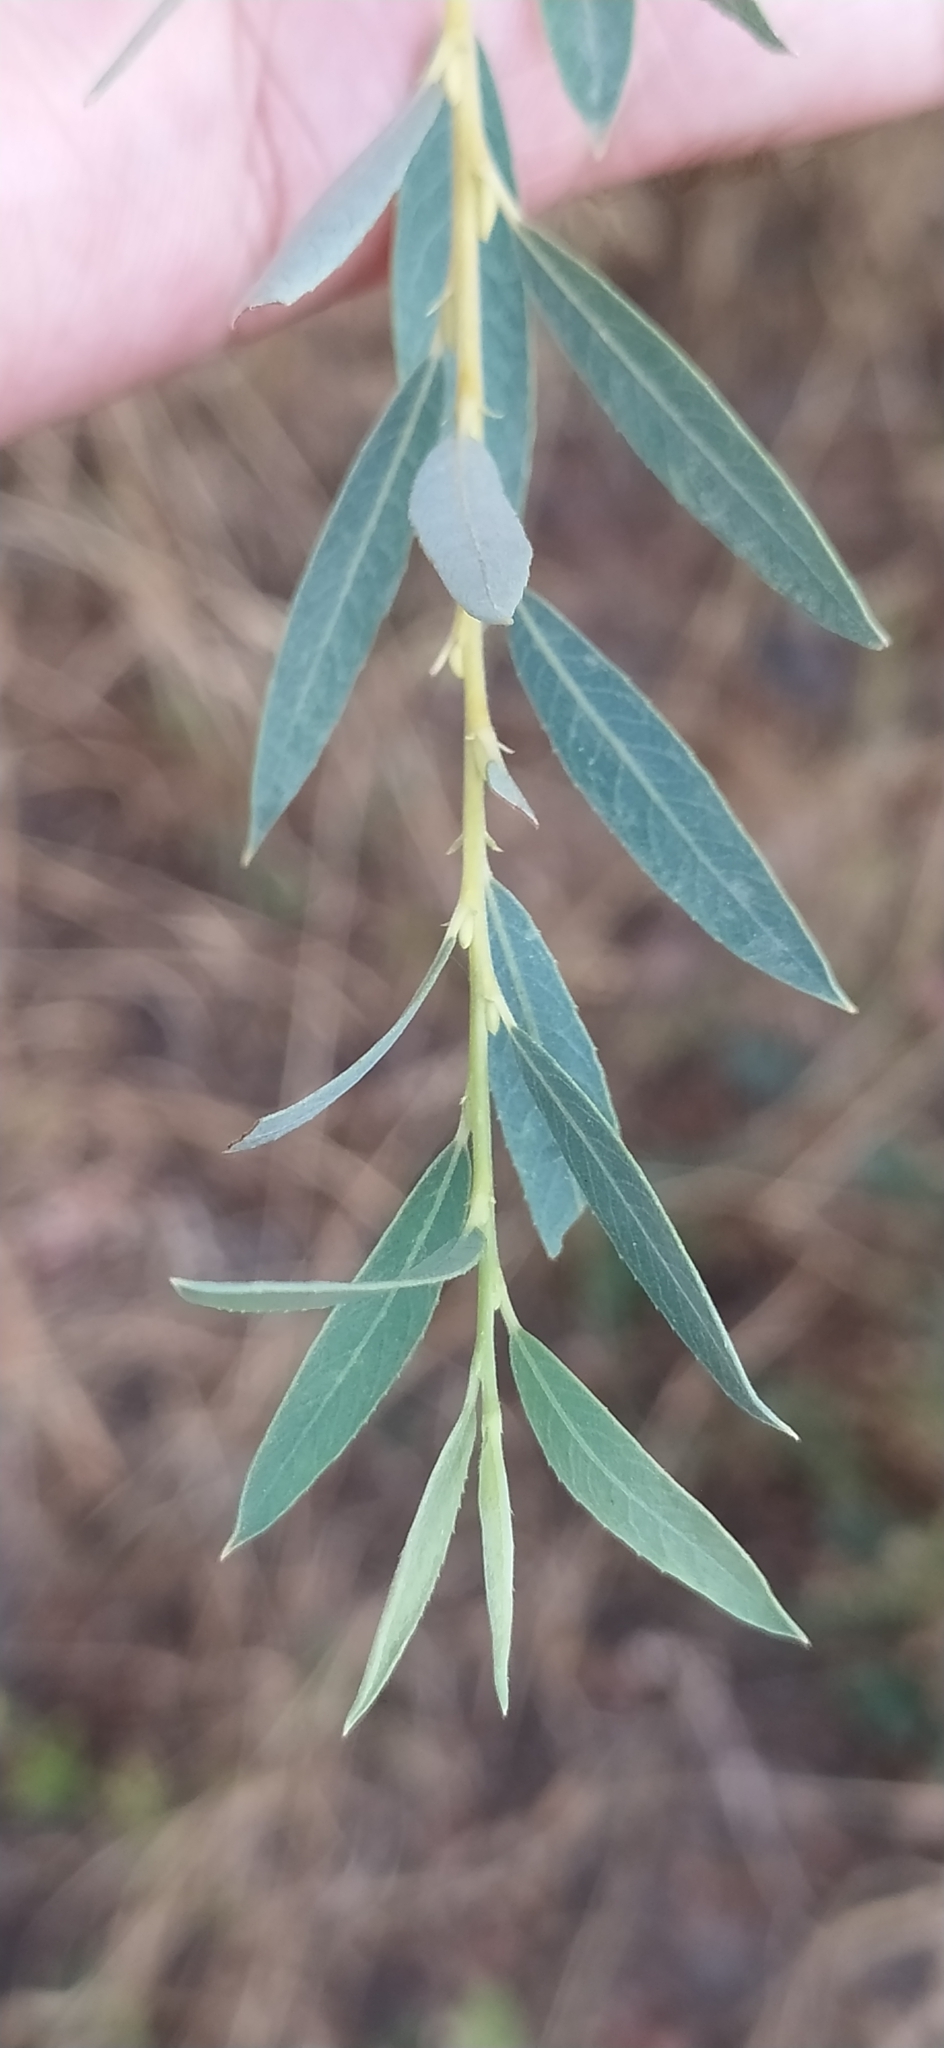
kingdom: Plantae
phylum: Tracheophyta
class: Magnoliopsida
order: Malpighiales
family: Salicaceae
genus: Salix
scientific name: Salix excelsa
